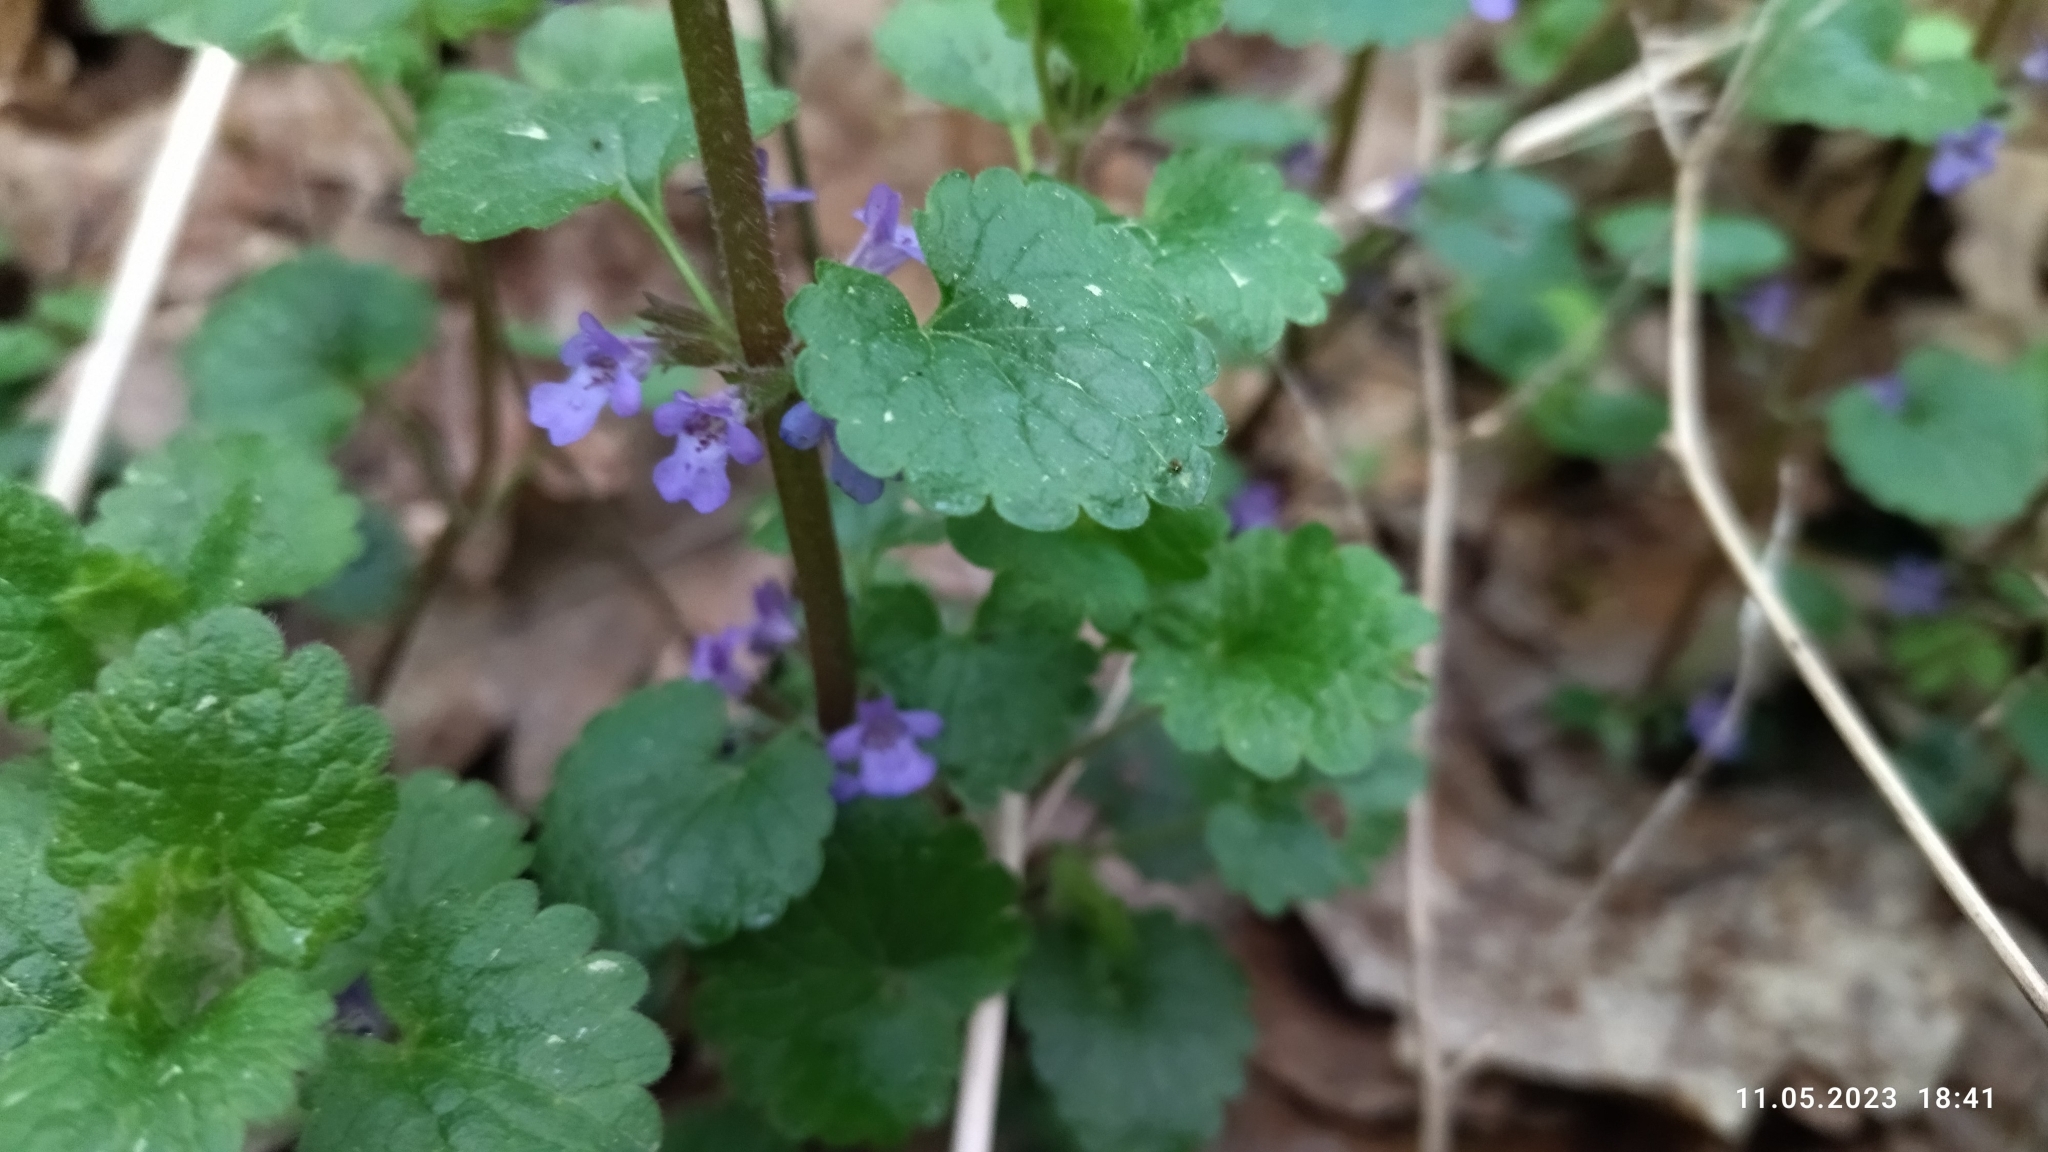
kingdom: Plantae
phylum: Tracheophyta
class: Magnoliopsida
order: Lamiales
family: Lamiaceae
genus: Glechoma
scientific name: Glechoma hederacea
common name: Ground ivy
